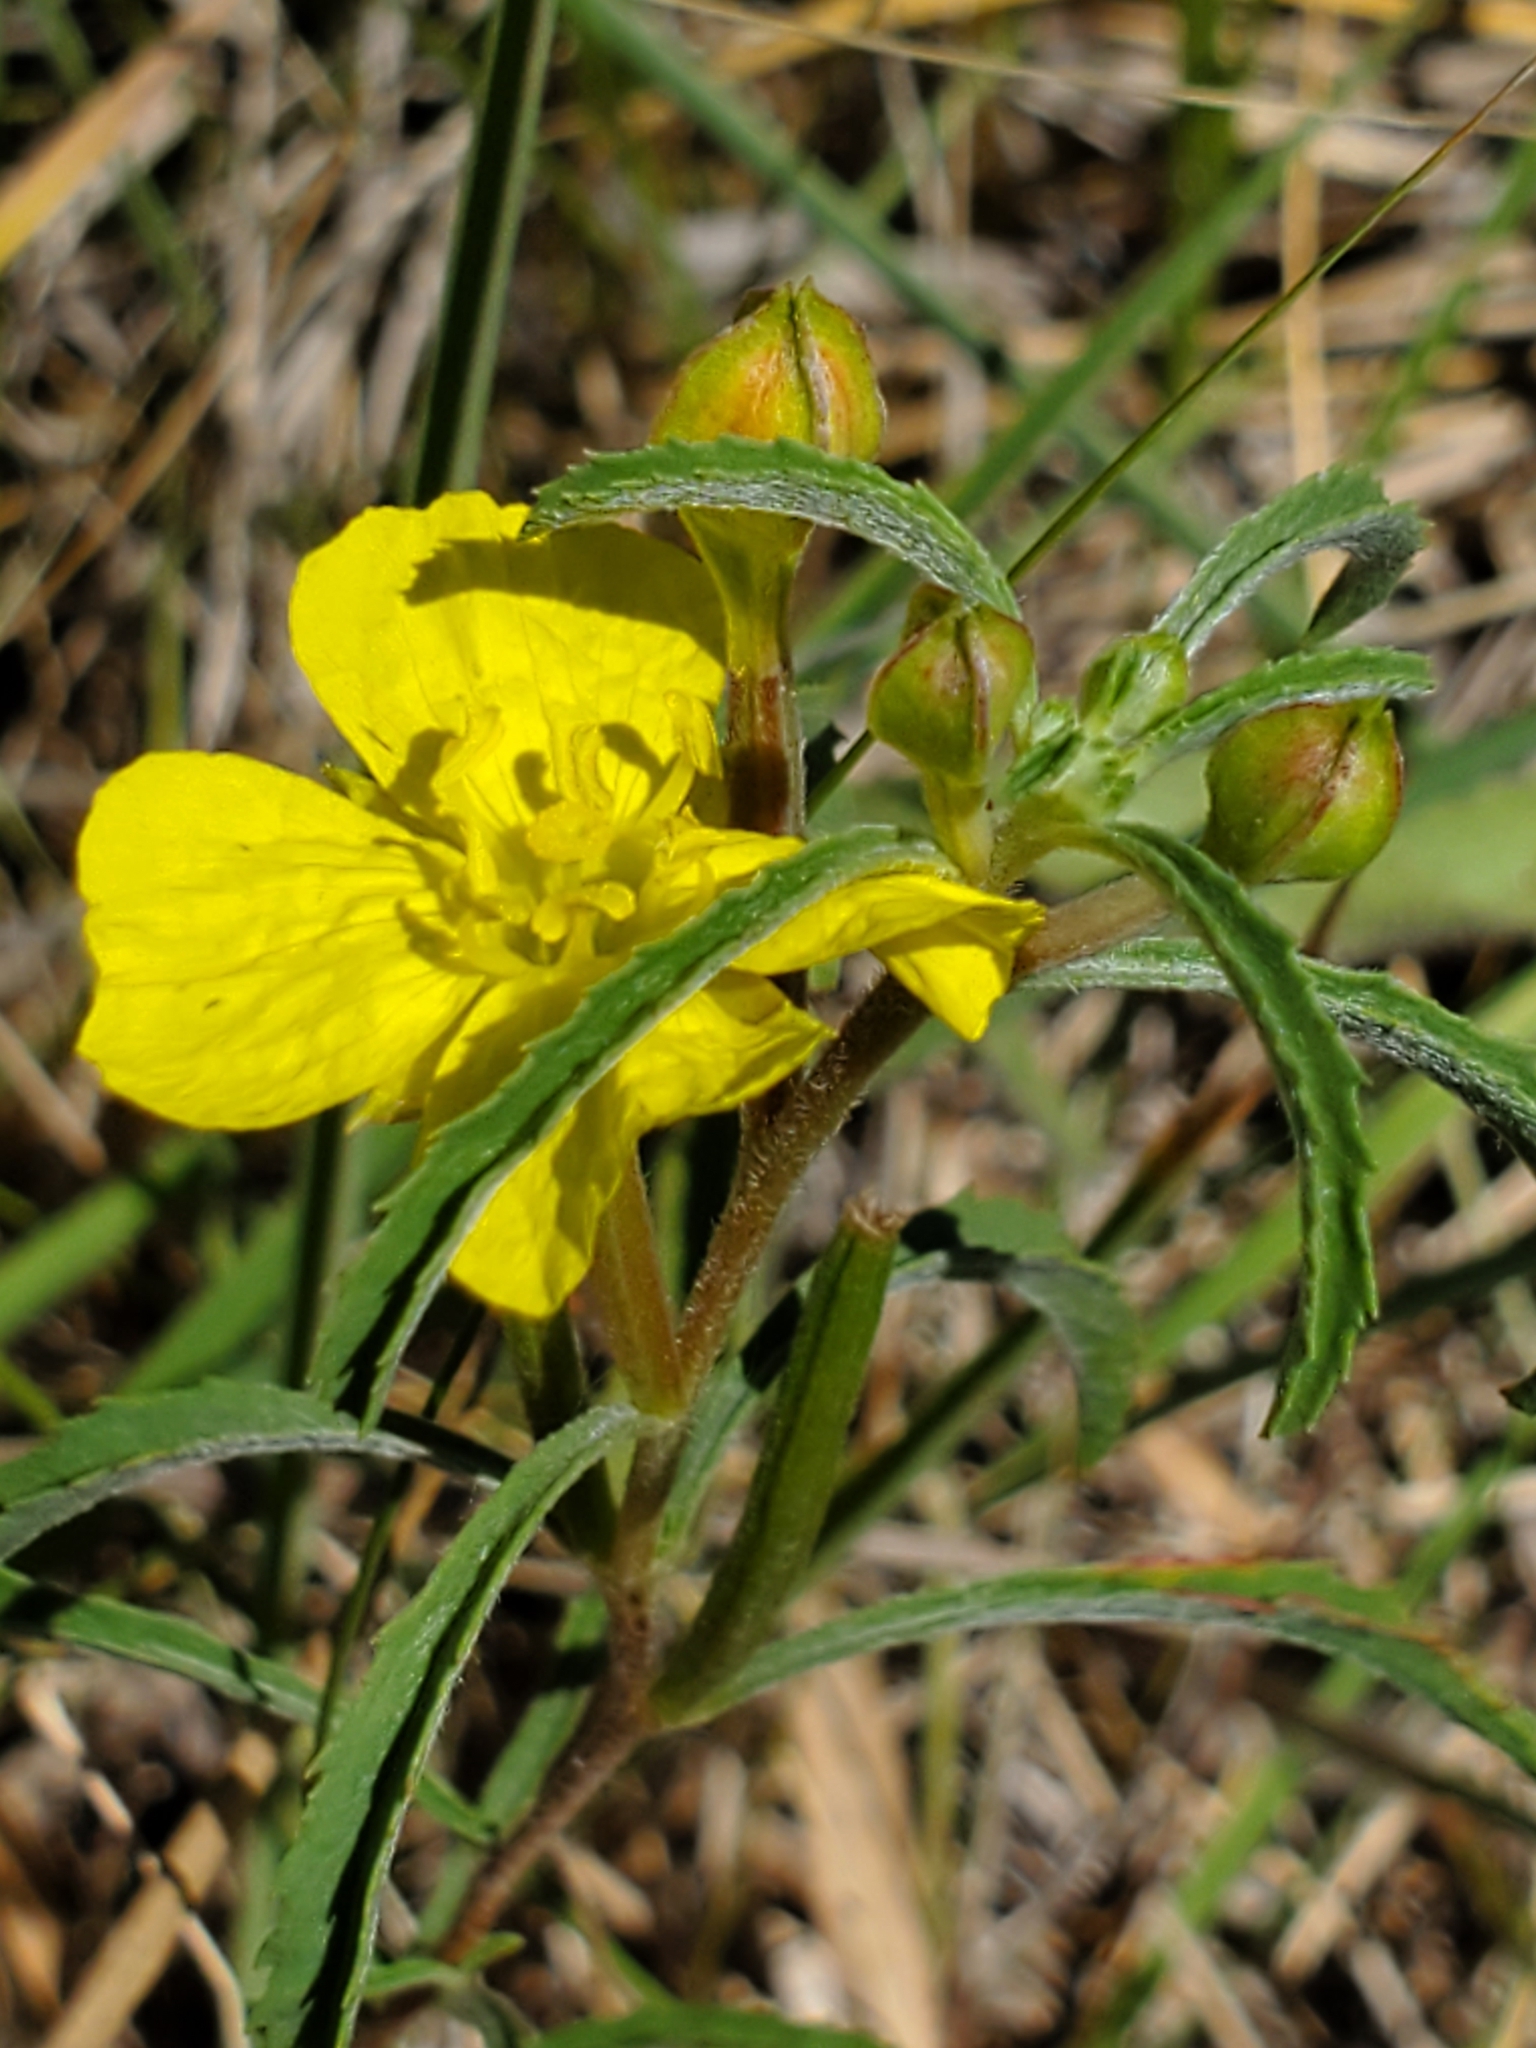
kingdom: Plantae
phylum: Tracheophyta
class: Magnoliopsida
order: Myrtales
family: Onagraceae
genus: Oenothera
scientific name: Oenothera serrulata
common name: Half-shrub calylophus
